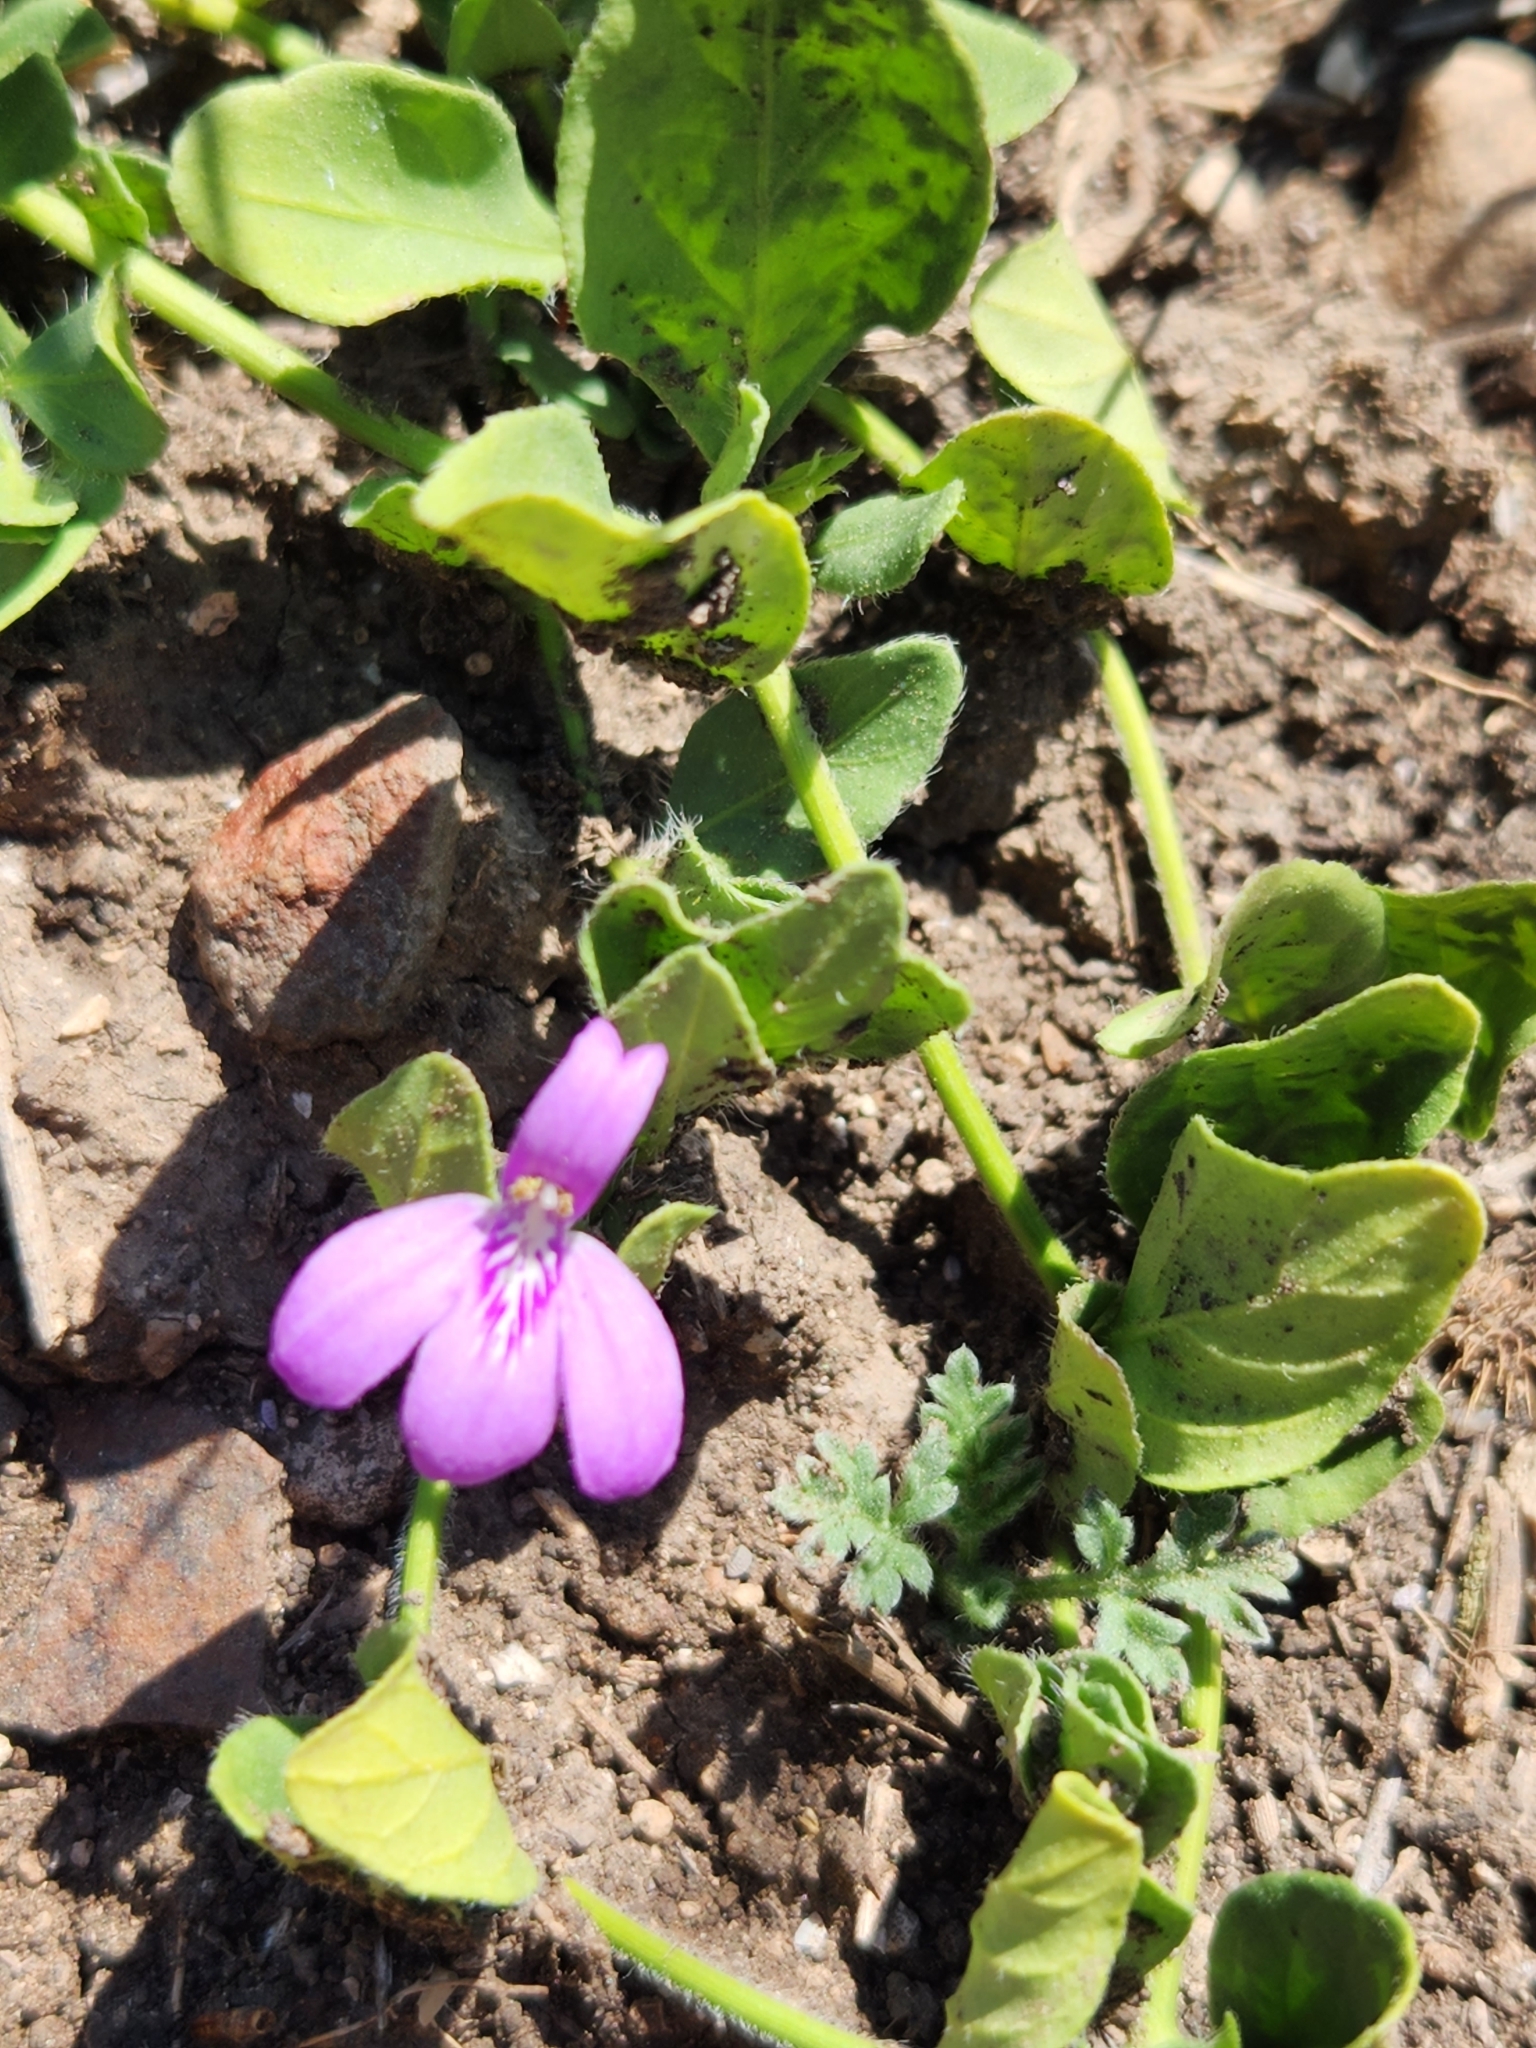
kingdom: Plantae
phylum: Tracheophyta
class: Magnoliopsida
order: Lamiales
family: Acanthaceae
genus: Justicia
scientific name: Justicia pilosella
